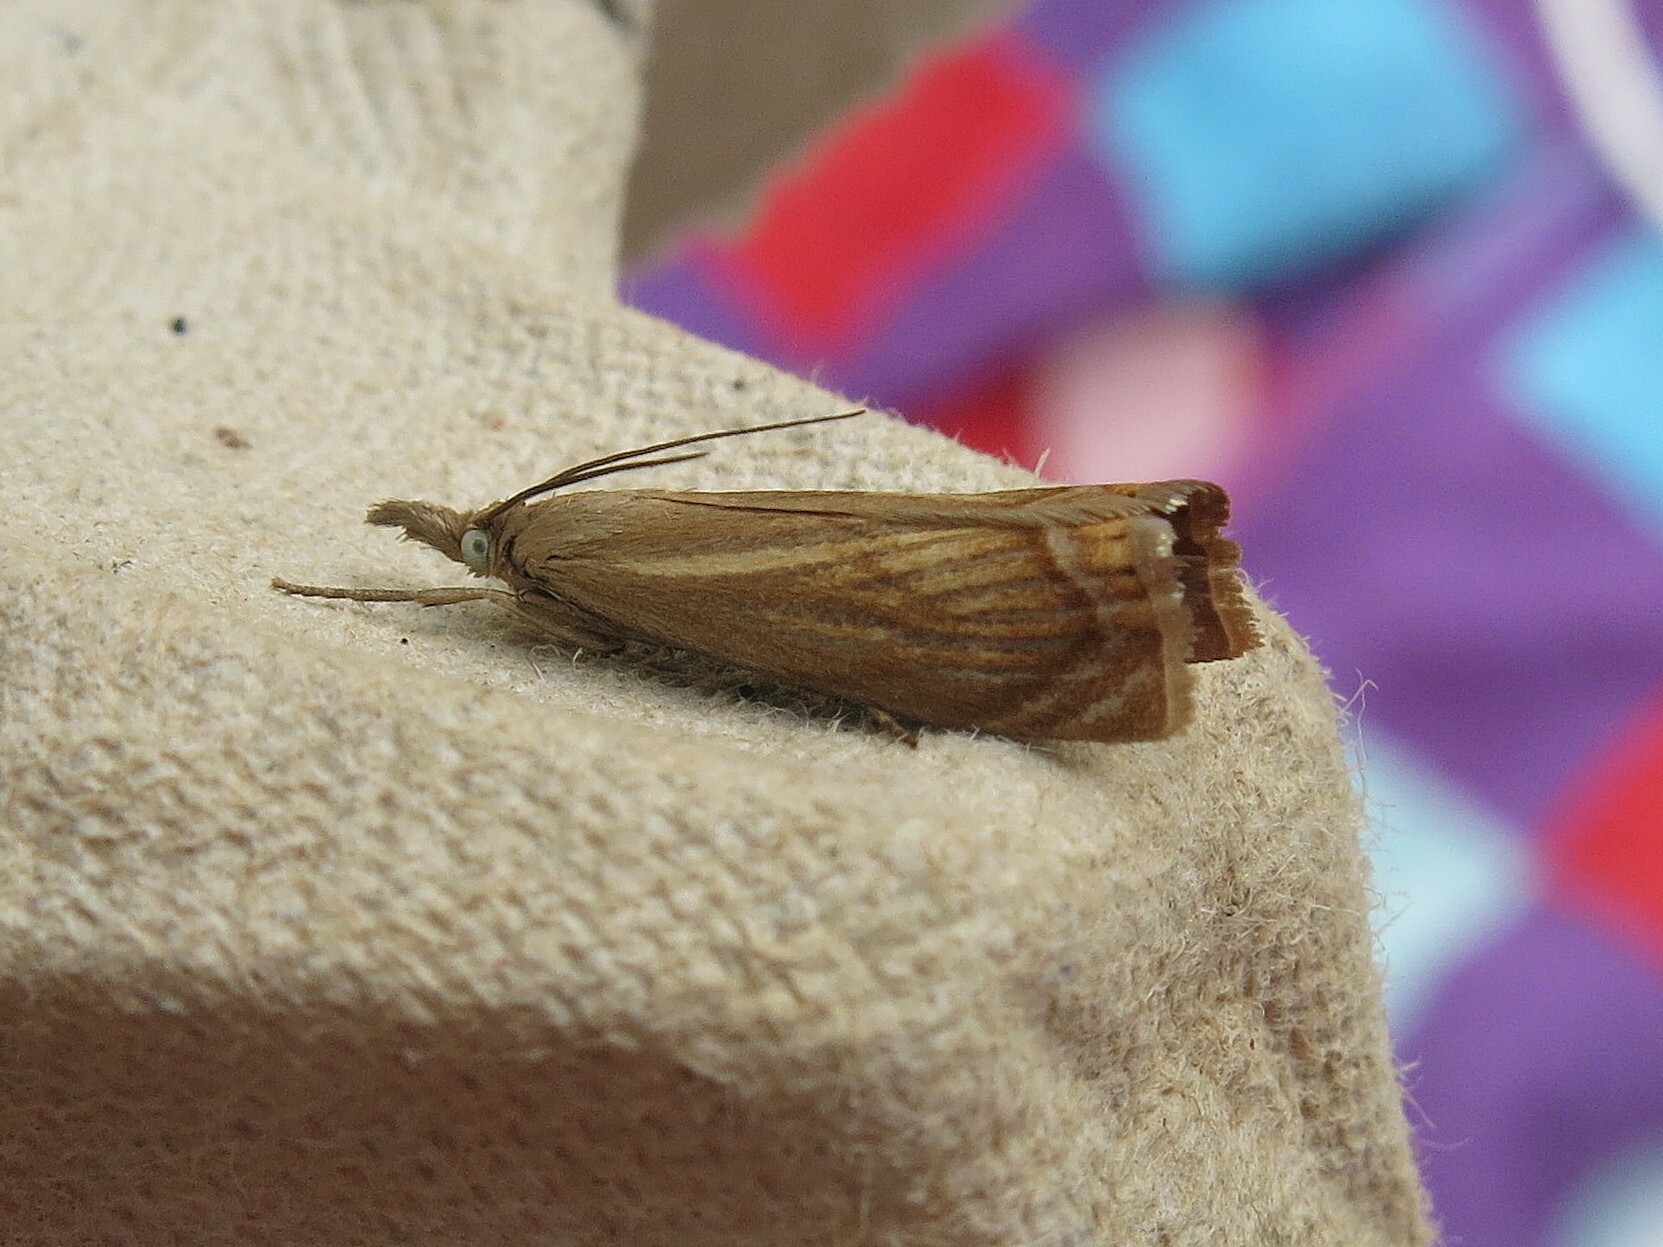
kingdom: Animalia
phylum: Arthropoda
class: Insecta
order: Lepidoptera
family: Crambidae
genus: Chrysoteuchia
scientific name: Chrysoteuchia culmella
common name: Garden grass-veneer
